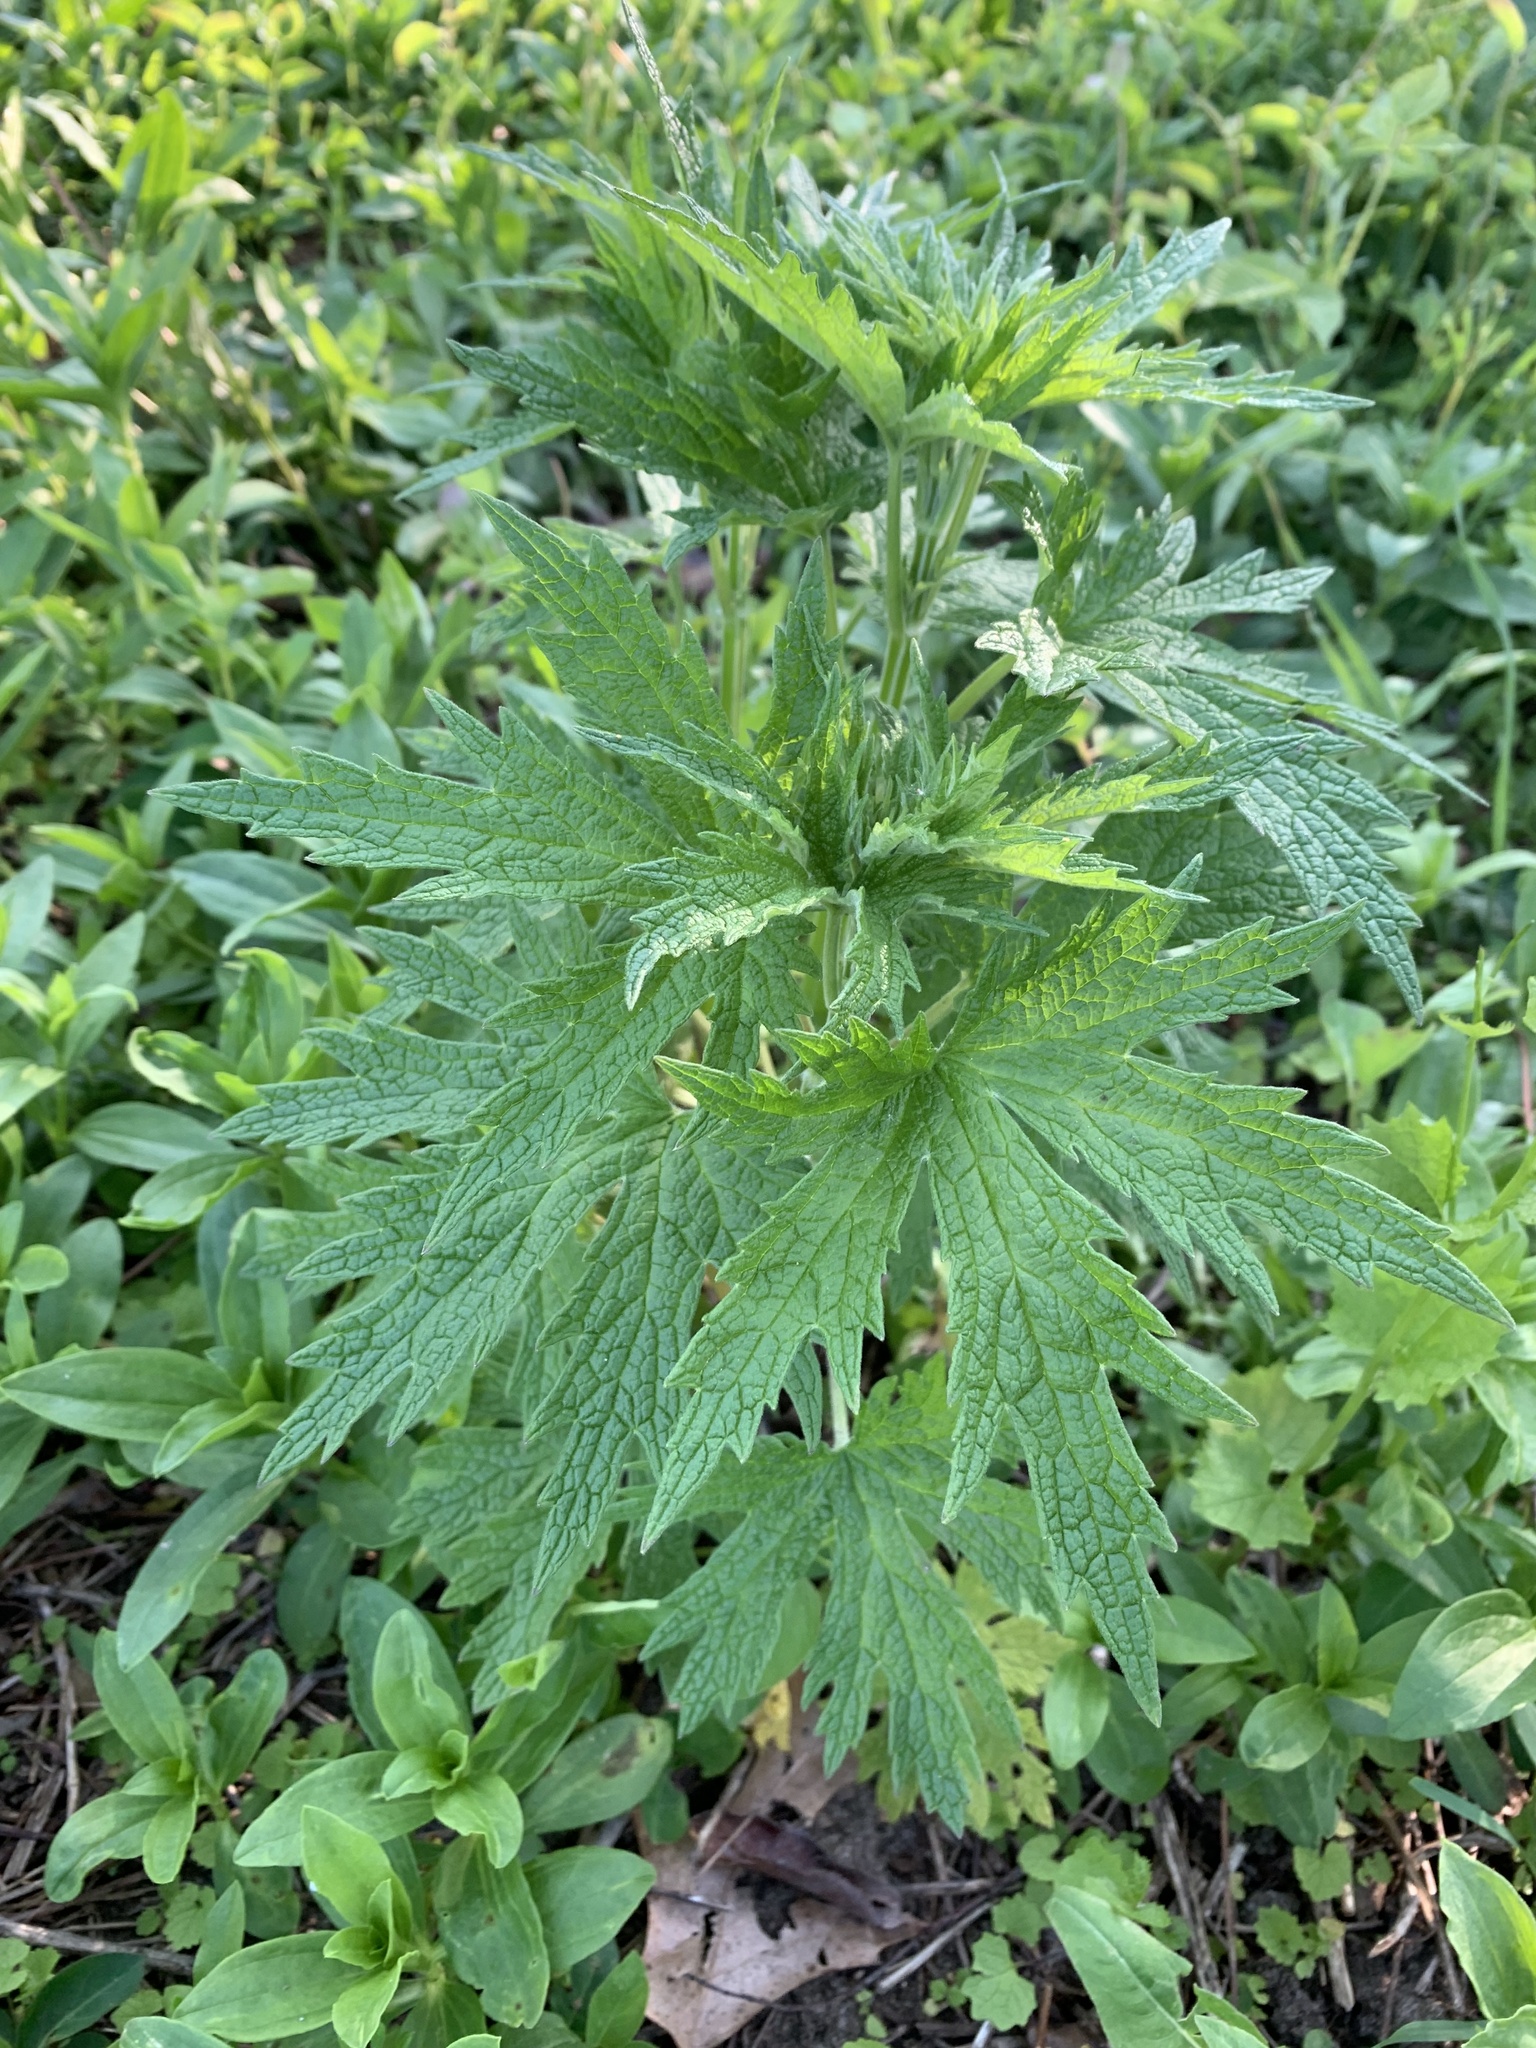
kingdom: Plantae
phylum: Tracheophyta
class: Magnoliopsida
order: Lamiales
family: Lamiaceae
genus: Leonurus
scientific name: Leonurus cardiaca
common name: Motherwort
